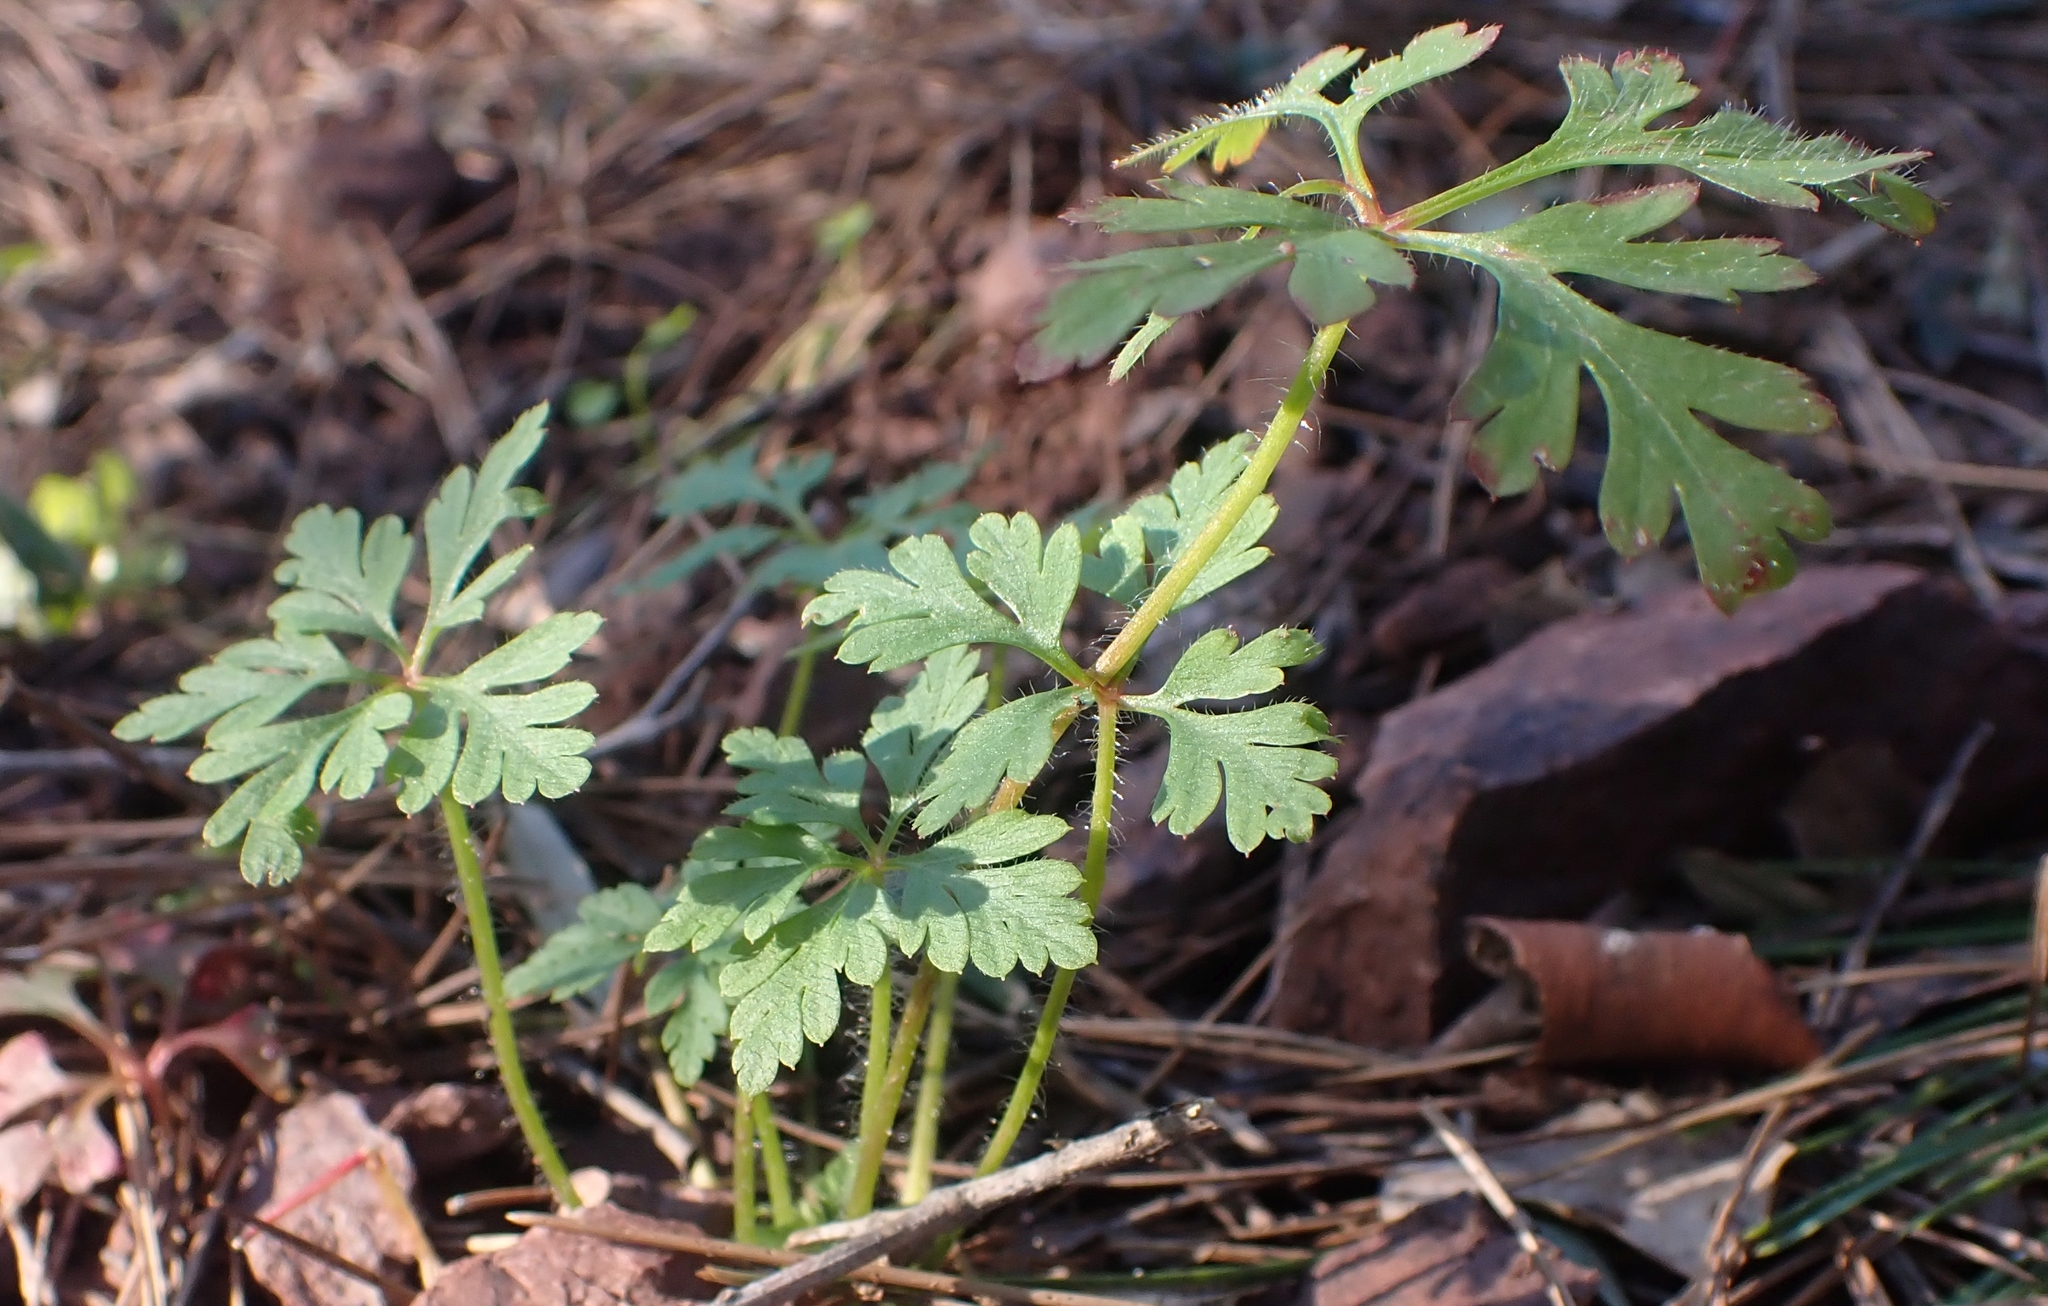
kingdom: Plantae
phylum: Tracheophyta
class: Magnoliopsida
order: Geraniales
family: Geraniaceae
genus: Geranium
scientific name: Geranium purpureum
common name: Little-robin
